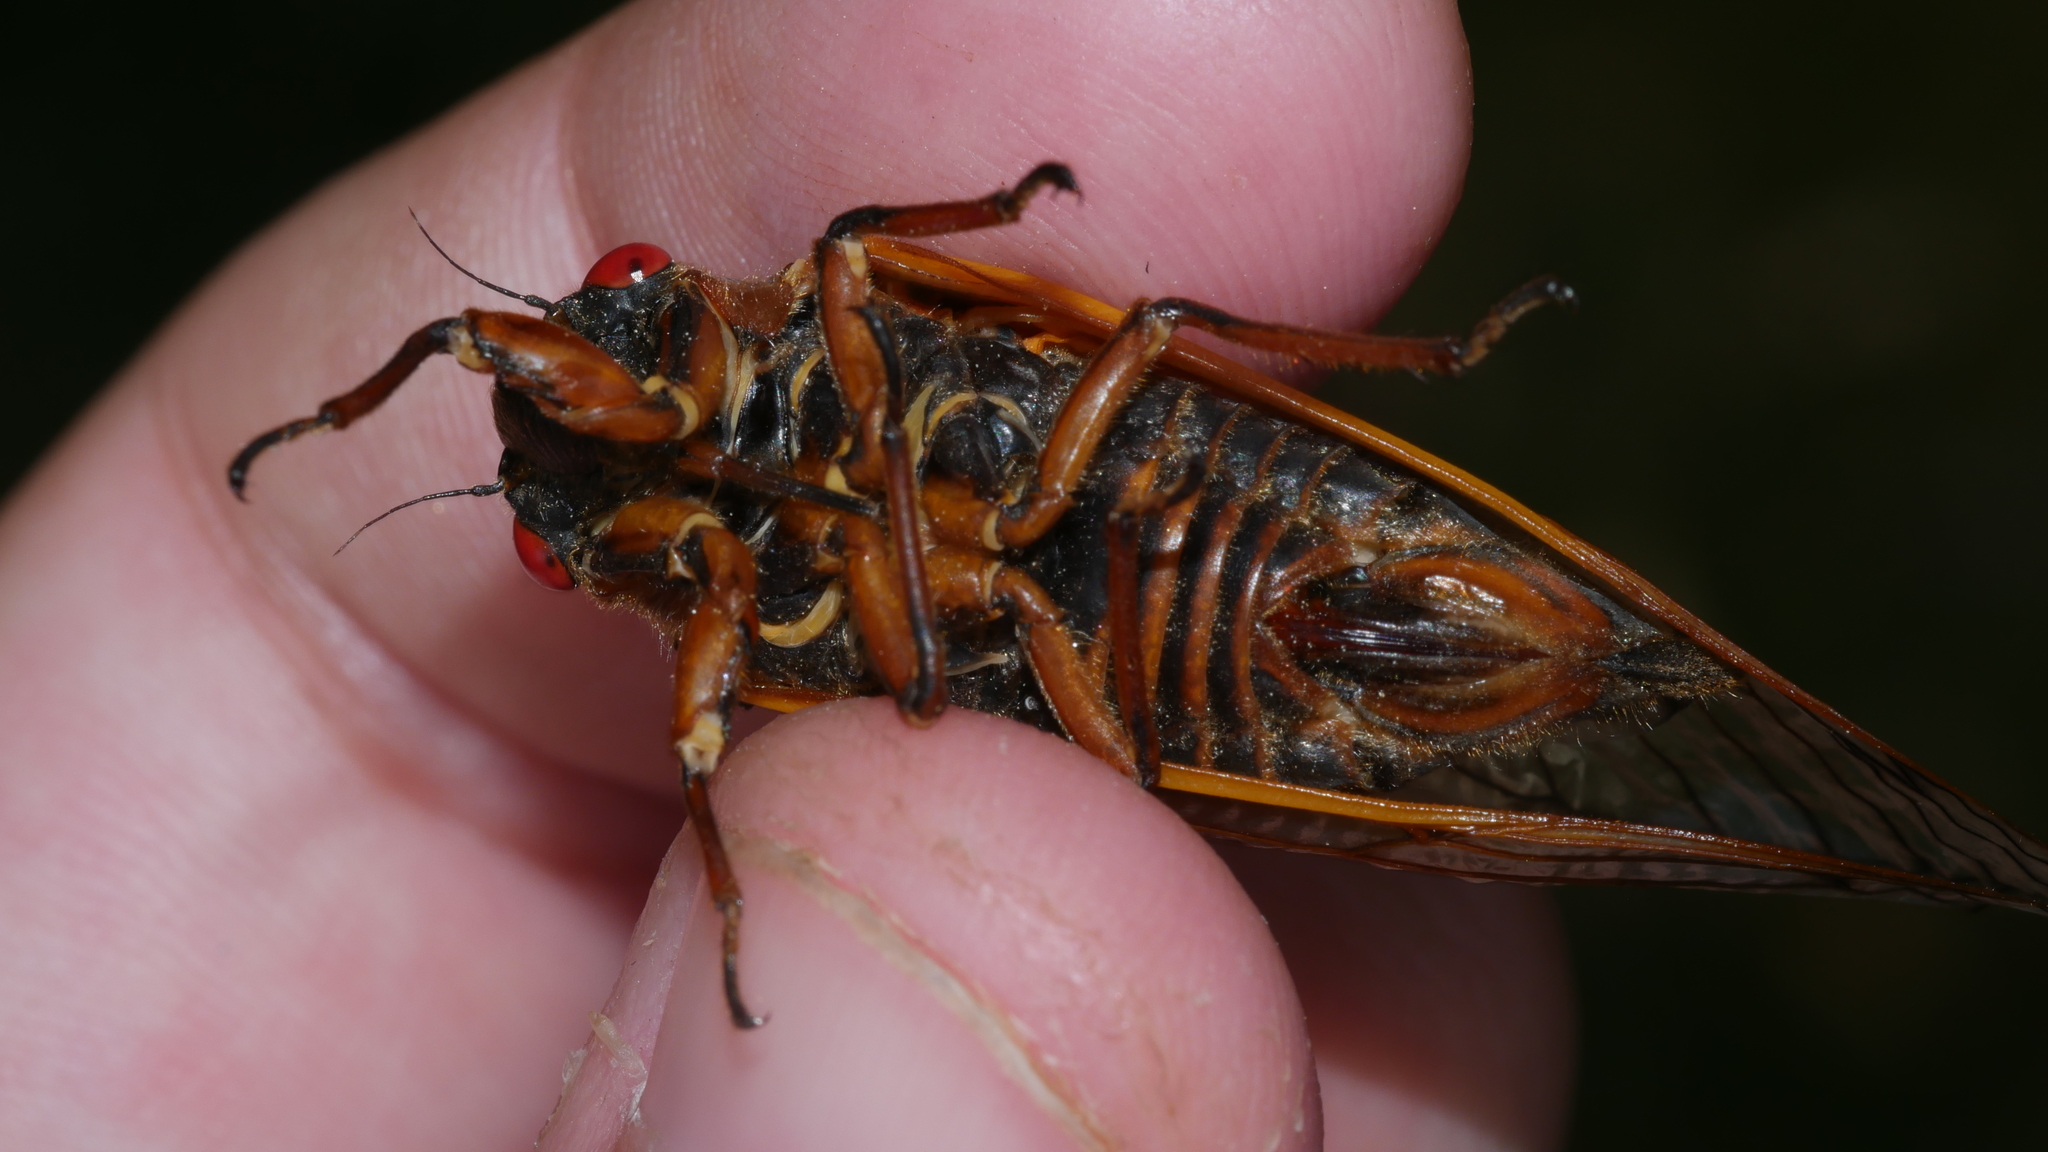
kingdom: Animalia
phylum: Arthropoda
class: Insecta
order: Hemiptera
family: Cicadidae
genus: Magicicada
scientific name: Magicicada septendecim
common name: Periodical cicada
